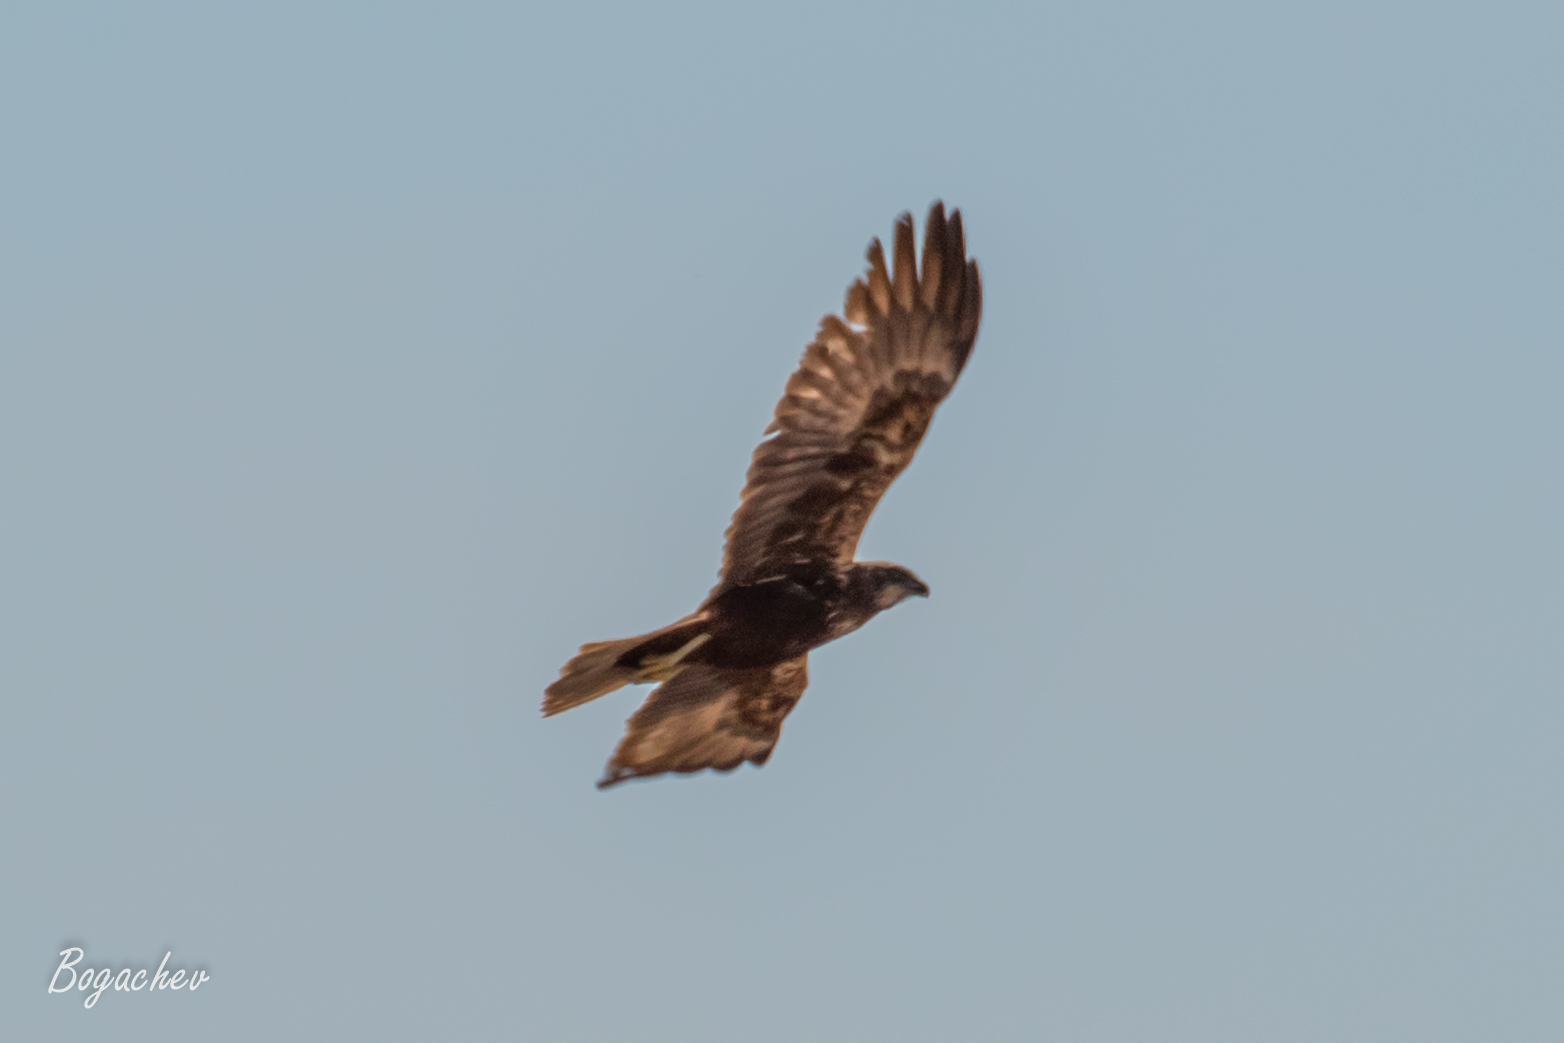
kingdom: Animalia
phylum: Chordata
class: Aves
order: Accipitriformes
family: Accipitridae
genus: Circus
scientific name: Circus aeruginosus
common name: Western marsh harrier
